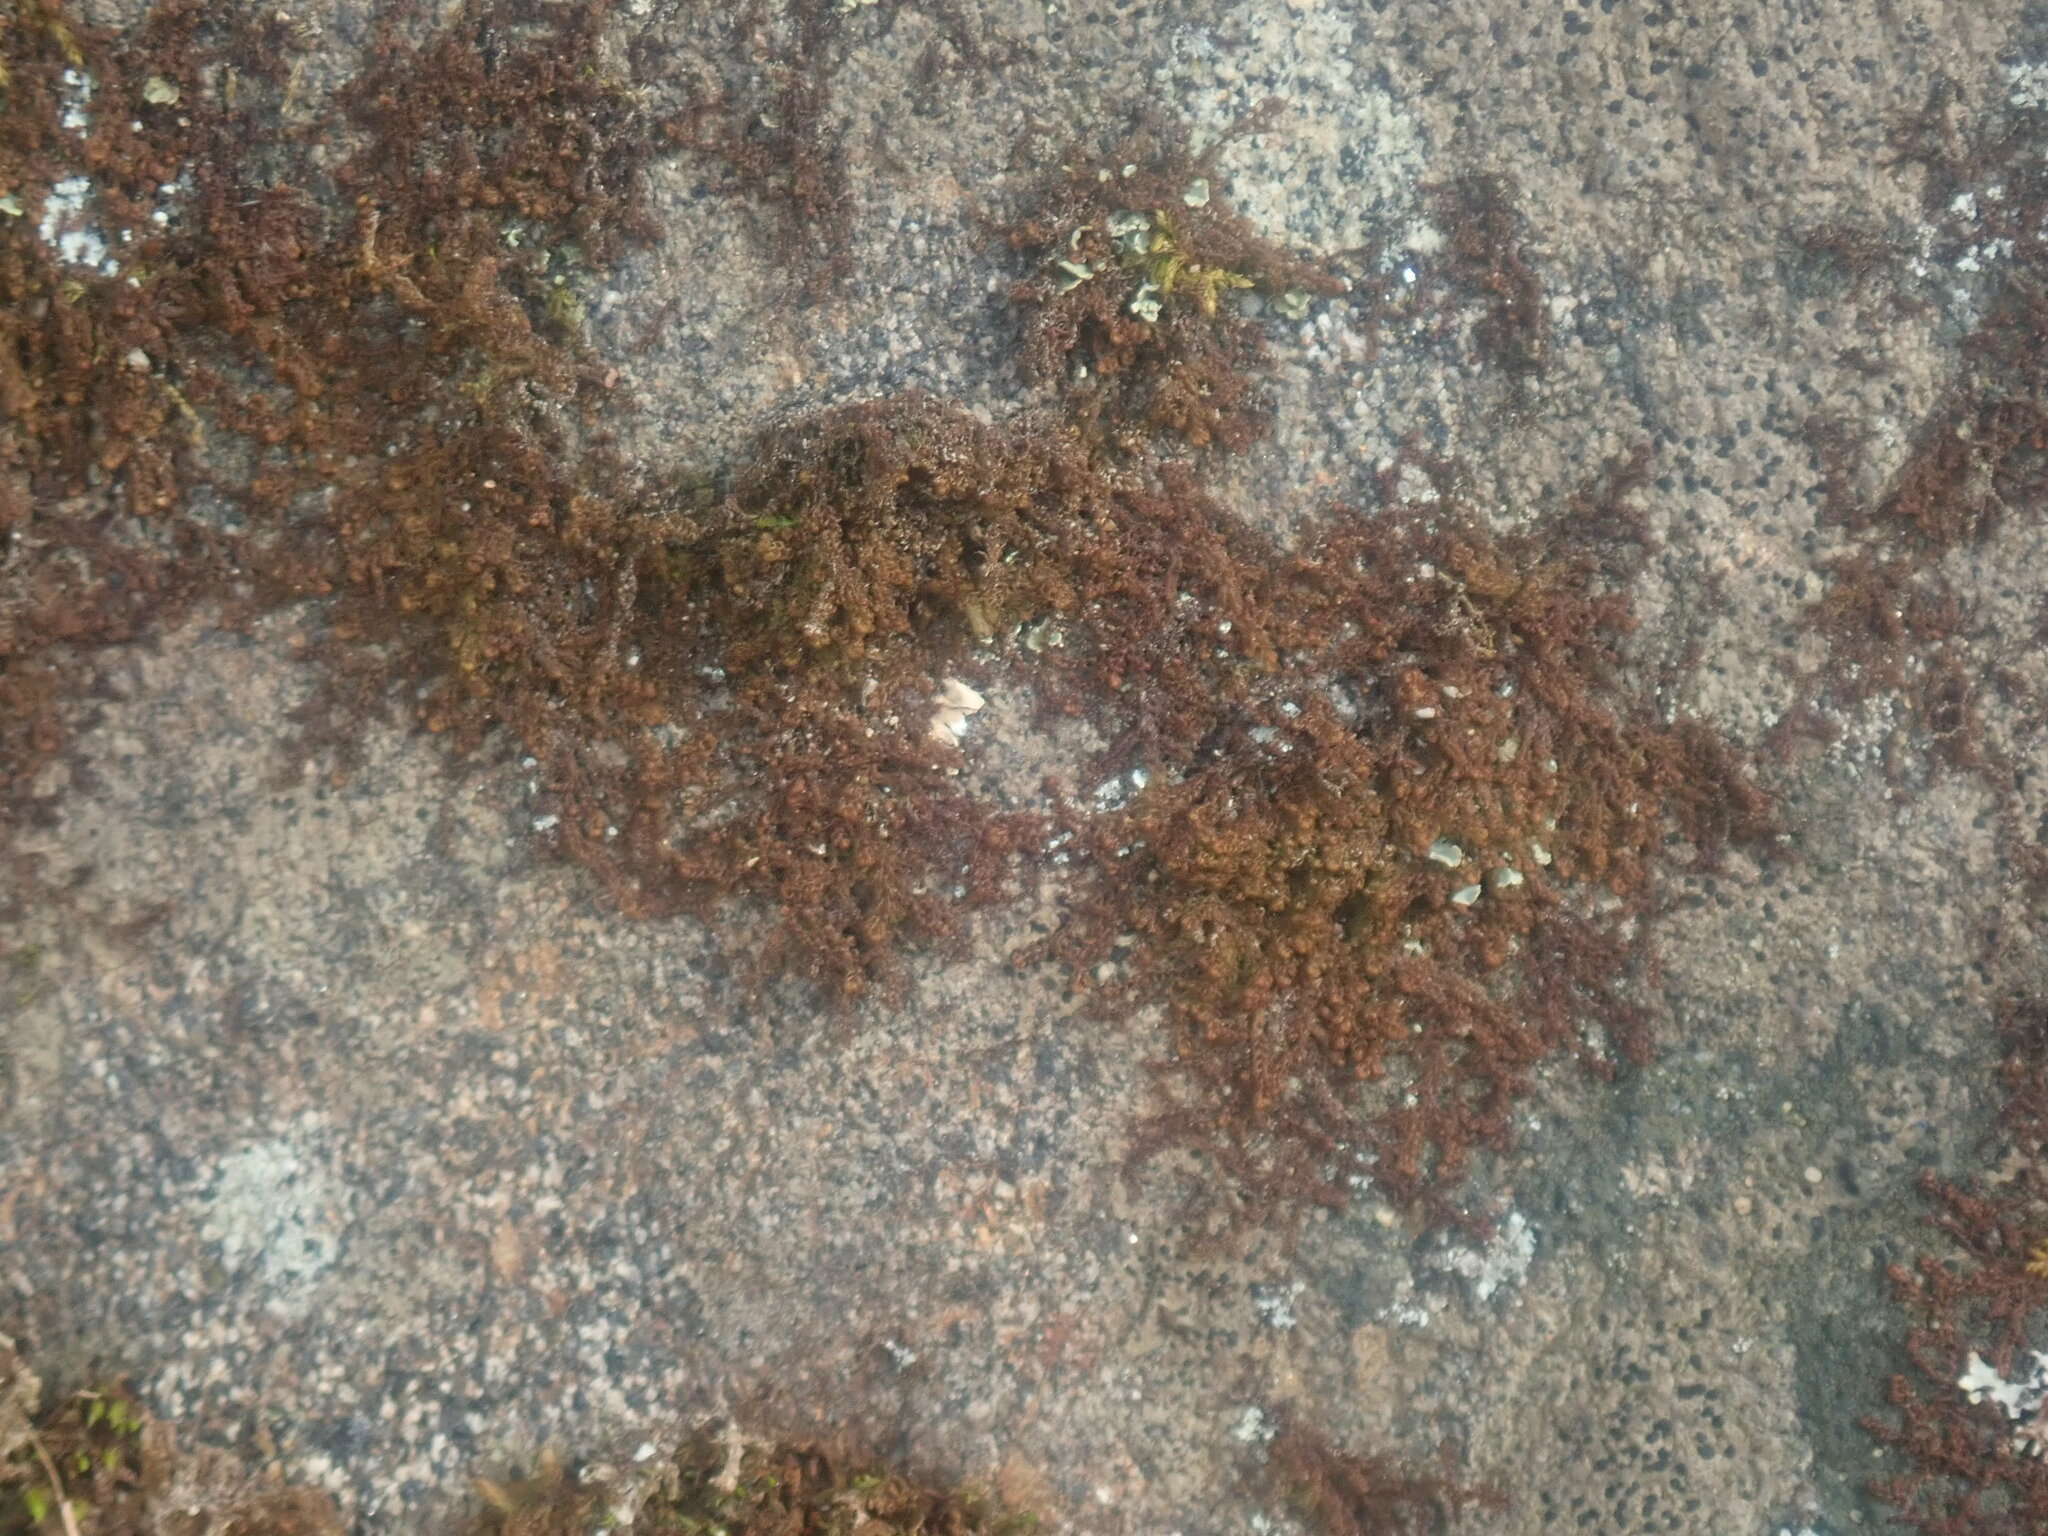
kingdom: Plantae
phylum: Marchantiophyta
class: Jungermanniopsida
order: Ptilidiales
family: Ptilidiaceae
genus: Ptilidium
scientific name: Ptilidium pulcherrimum
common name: Tree fringewort
